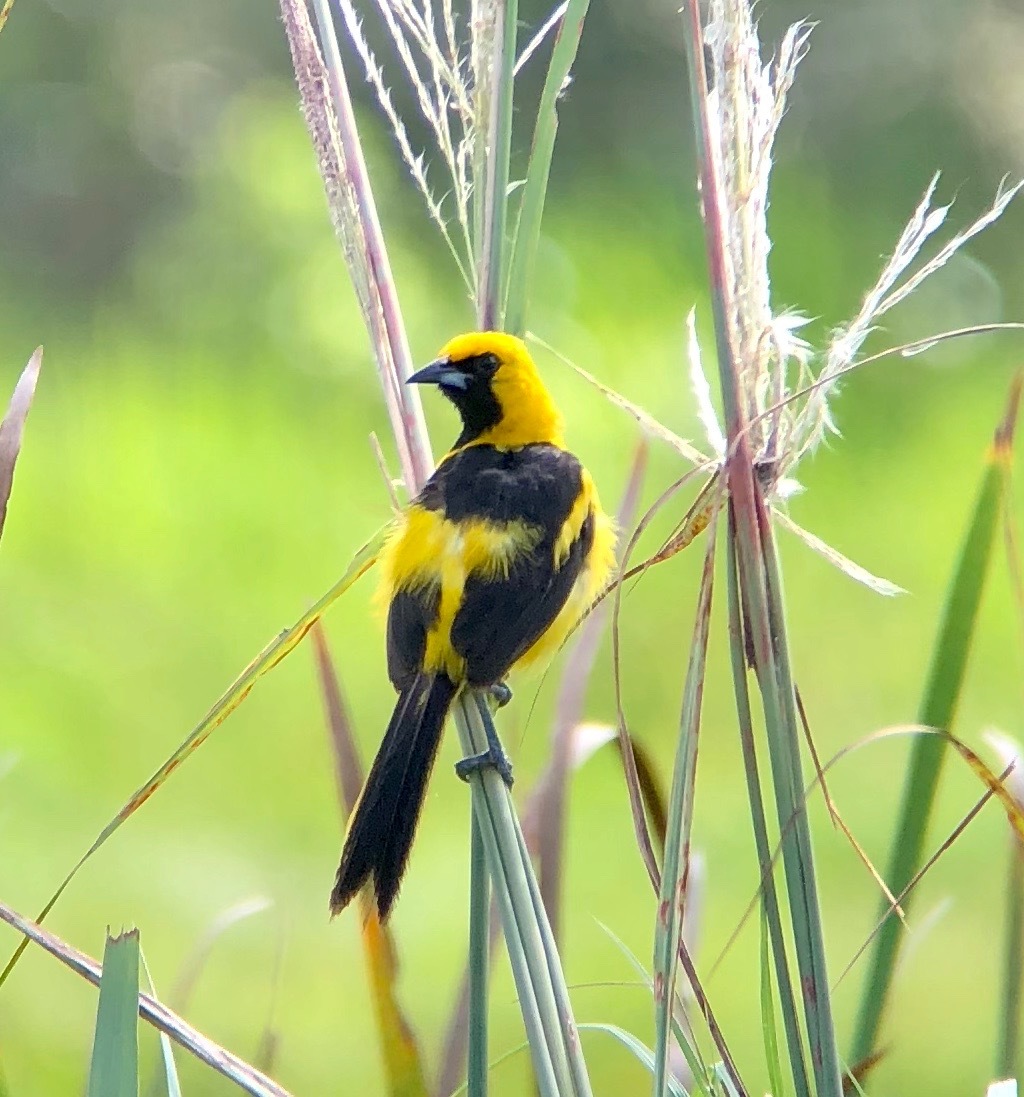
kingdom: Animalia
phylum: Chordata
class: Aves
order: Passeriformes
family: Icteridae
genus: Icterus
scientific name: Icterus mesomelas
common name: Yellow-tailed oriole
